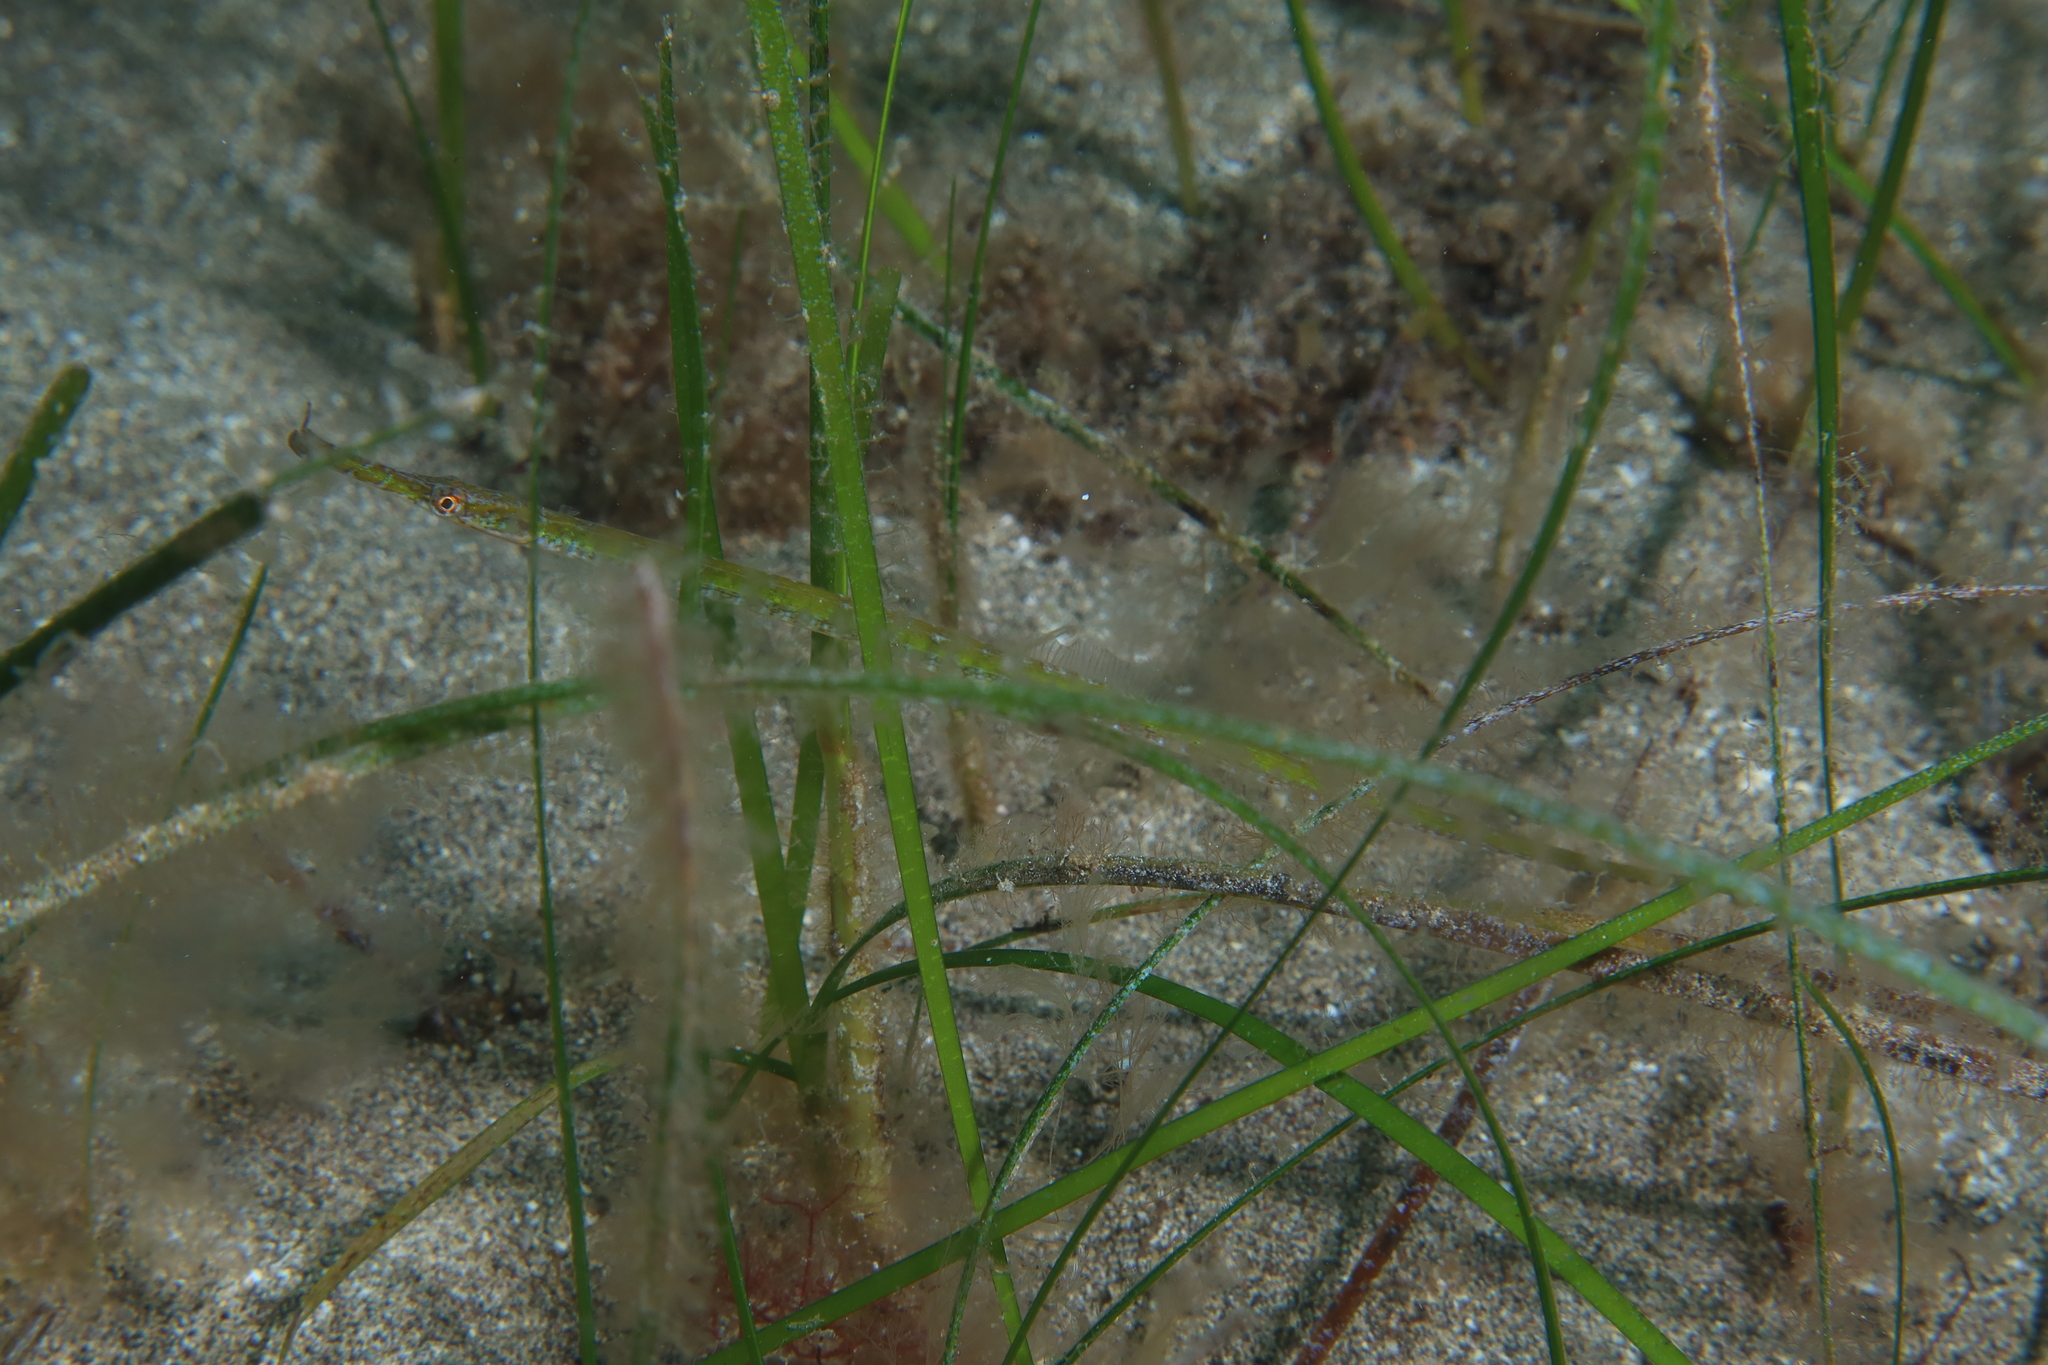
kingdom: Animalia
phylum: Chordata
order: Syngnathiformes
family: Syngnathidae
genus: Syngnathus
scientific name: Syngnathus typhle
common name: Deep-snouted pipefish
